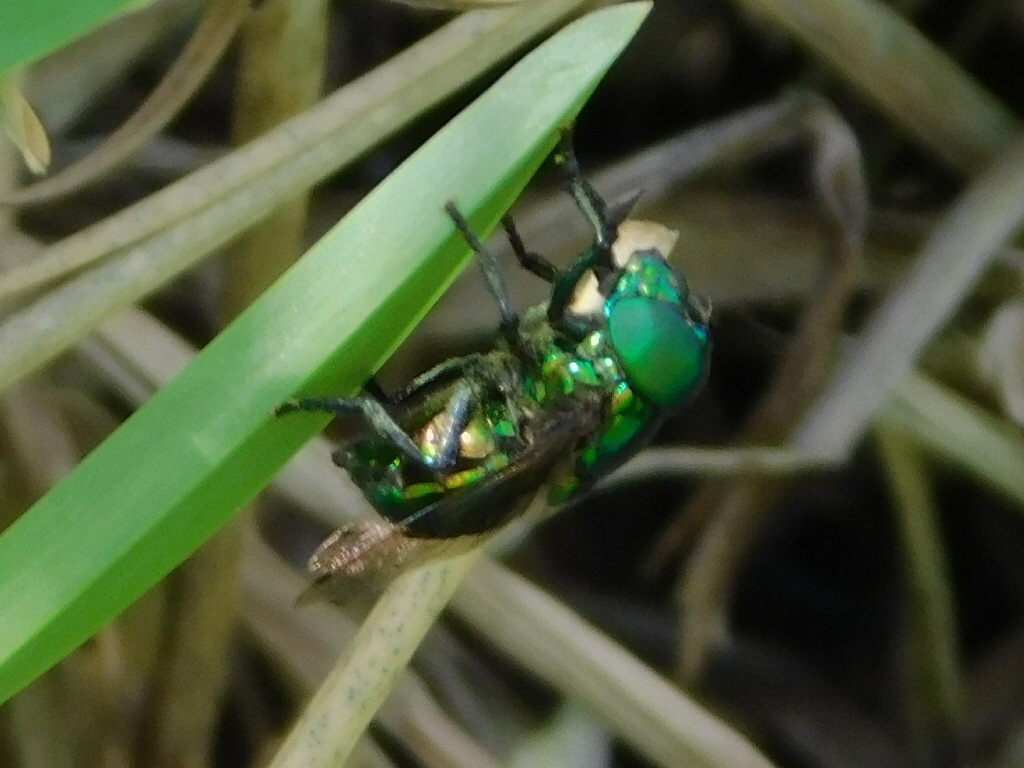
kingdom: Animalia
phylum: Arthropoda
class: Insecta
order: Diptera
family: Syrphidae
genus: Ornidia
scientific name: Ornidia obesa
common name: Syrphid fly
